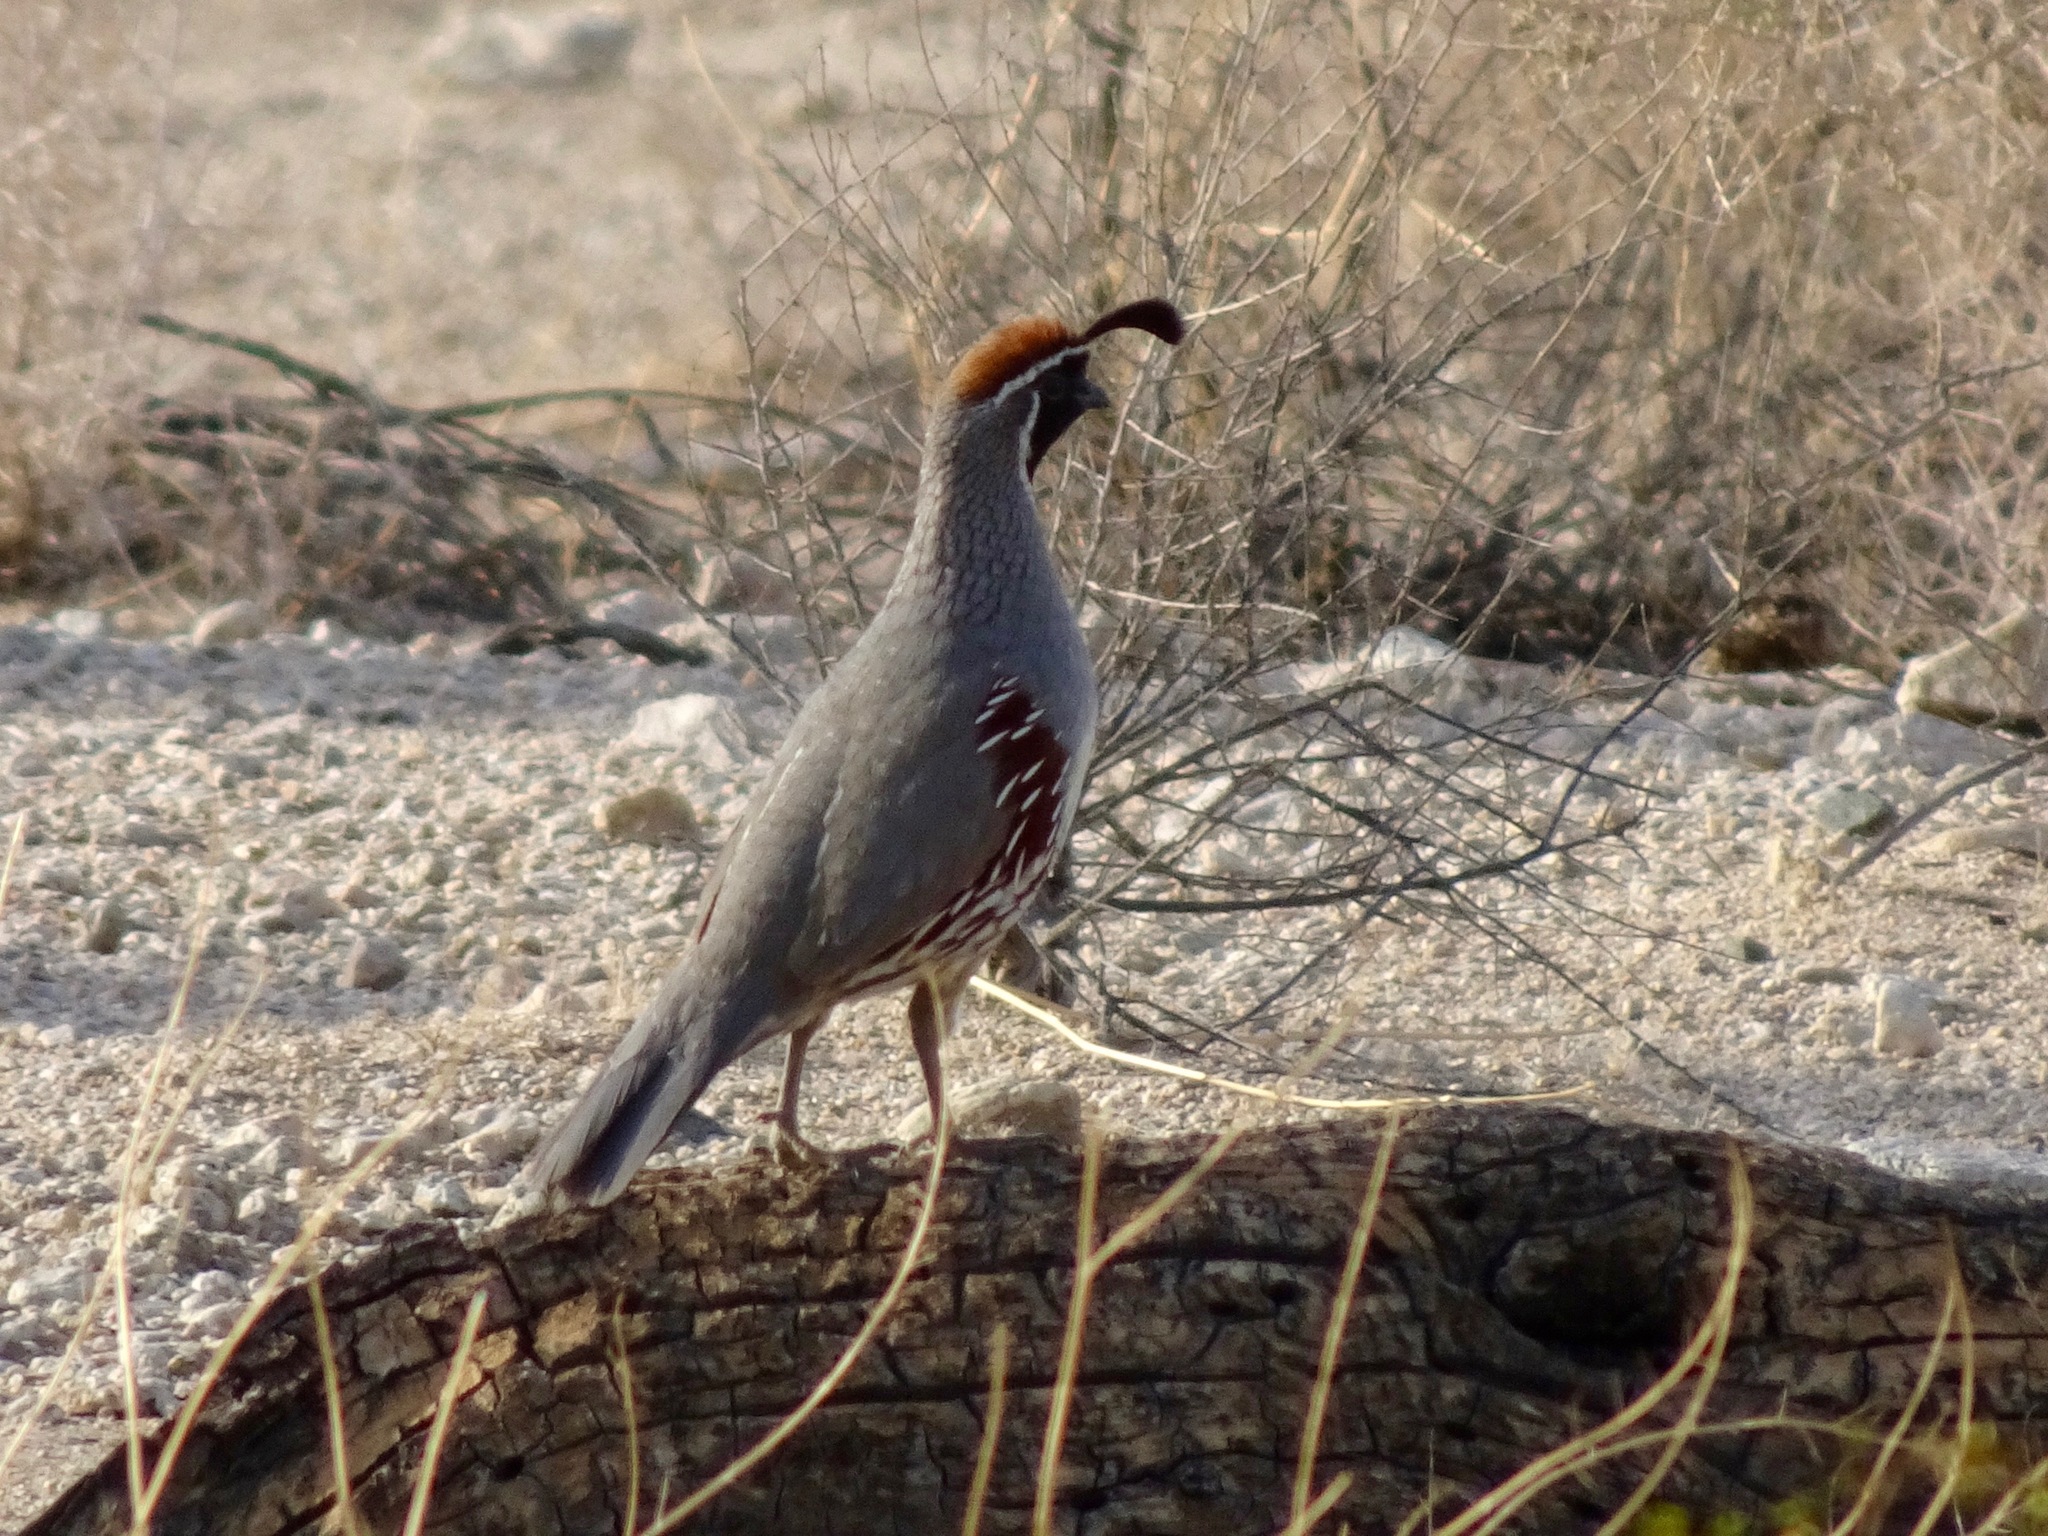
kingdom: Animalia
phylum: Chordata
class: Aves
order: Galliformes
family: Odontophoridae
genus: Callipepla
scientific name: Callipepla gambelii
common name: Gambel's quail
